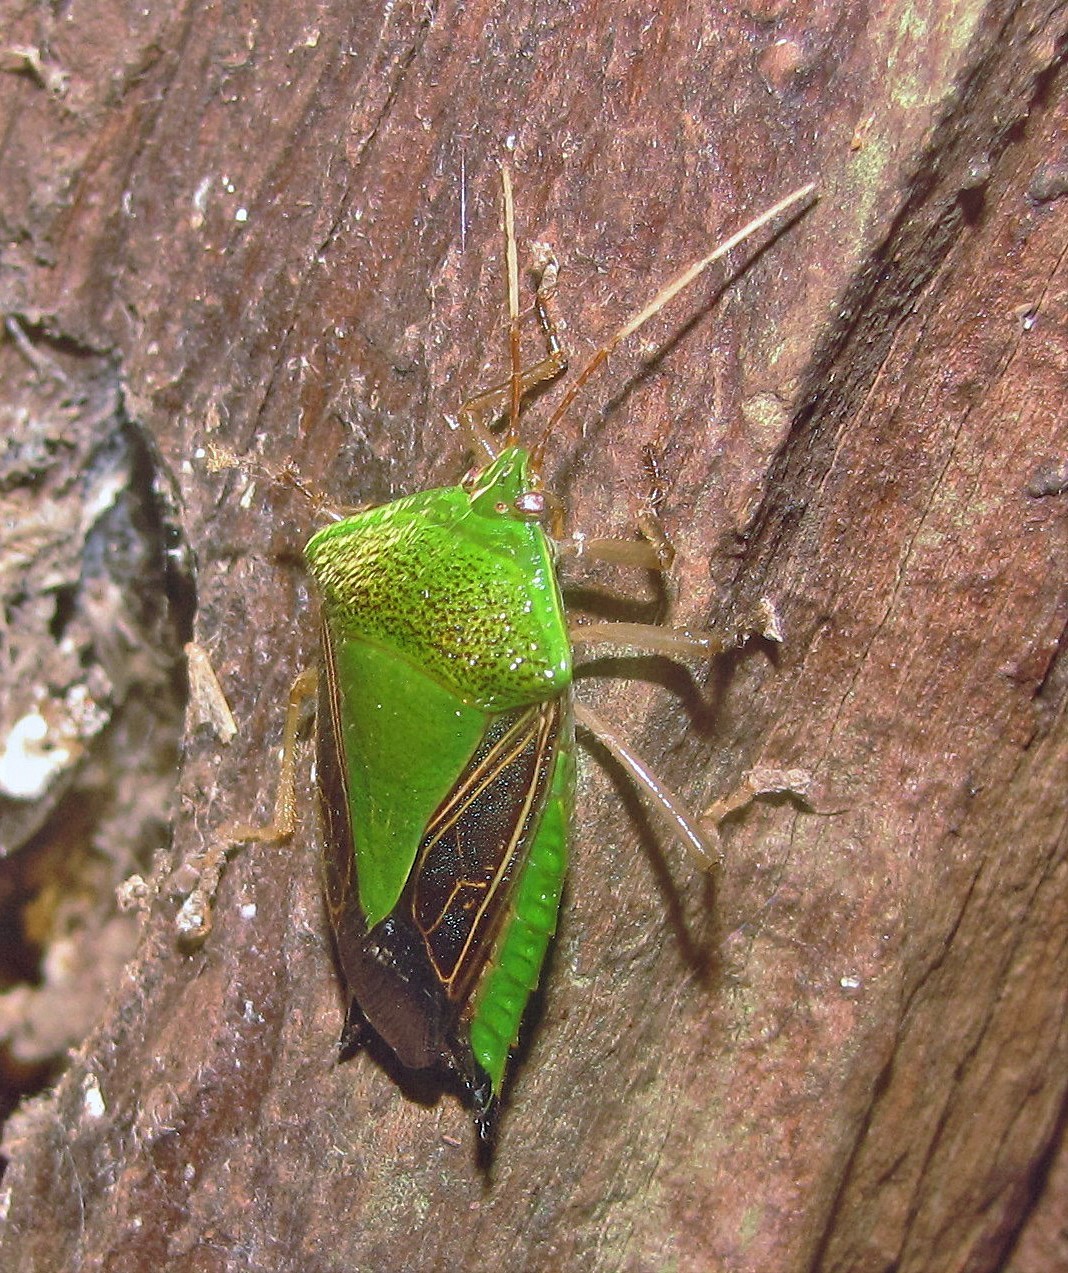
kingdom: Animalia
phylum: Arthropoda
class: Insecta
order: Hemiptera
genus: Pygoda
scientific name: Pygoda polita
